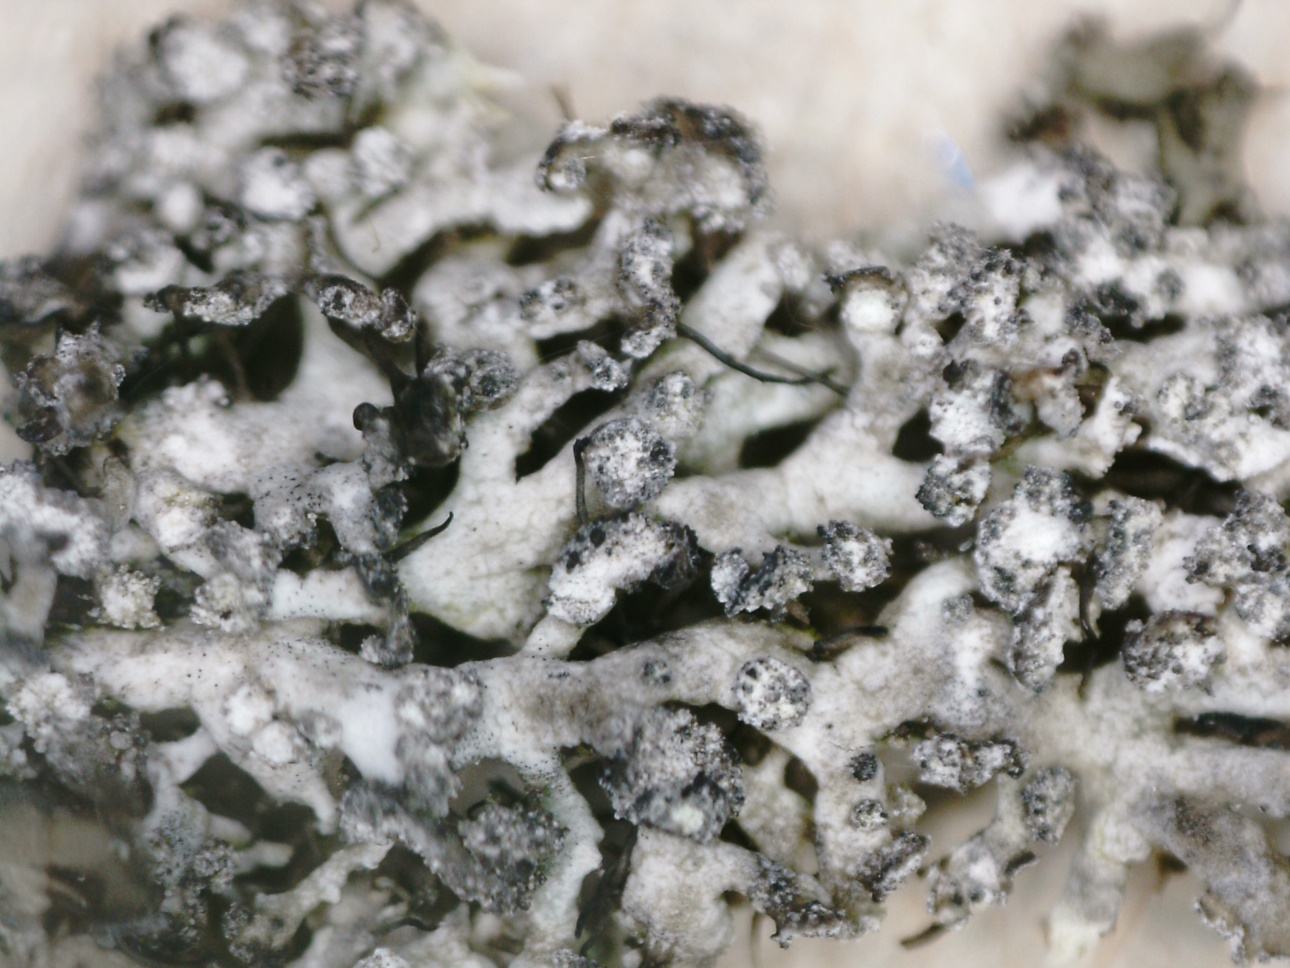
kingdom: Fungi
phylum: Ascomycota
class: Lecanoromycetes
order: Caliciales
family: Physciaceae
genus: Physcia
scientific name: Physcia tenella
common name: Fringed rosette lichen
